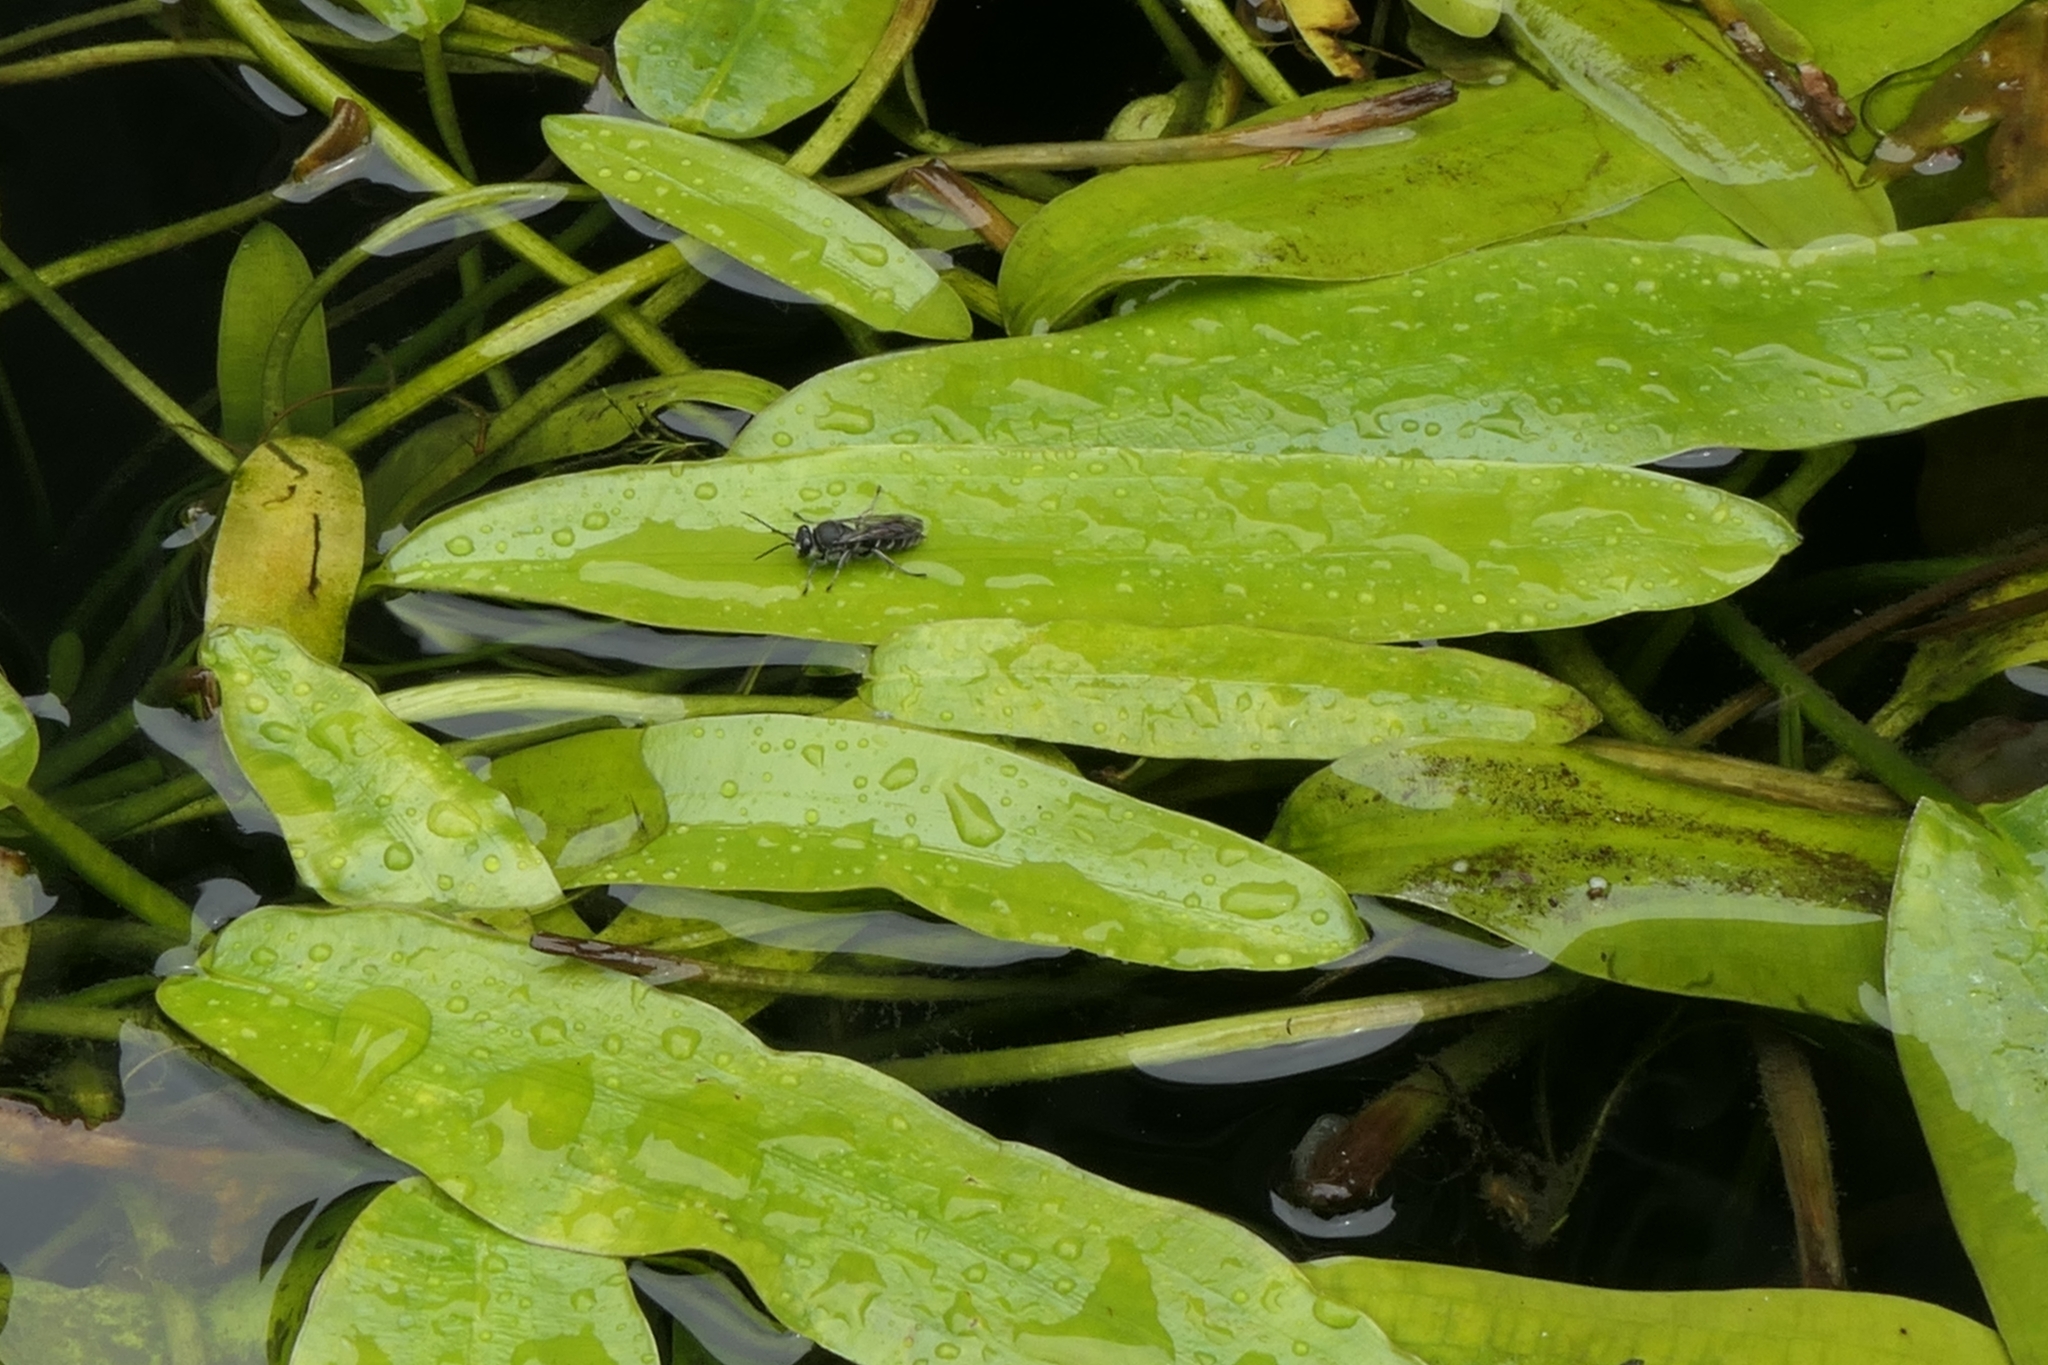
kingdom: Animalia
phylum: Arthropoda
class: Insecta
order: Hymenoptera
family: Crabronidae
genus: Pison
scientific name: Pison spinolae
